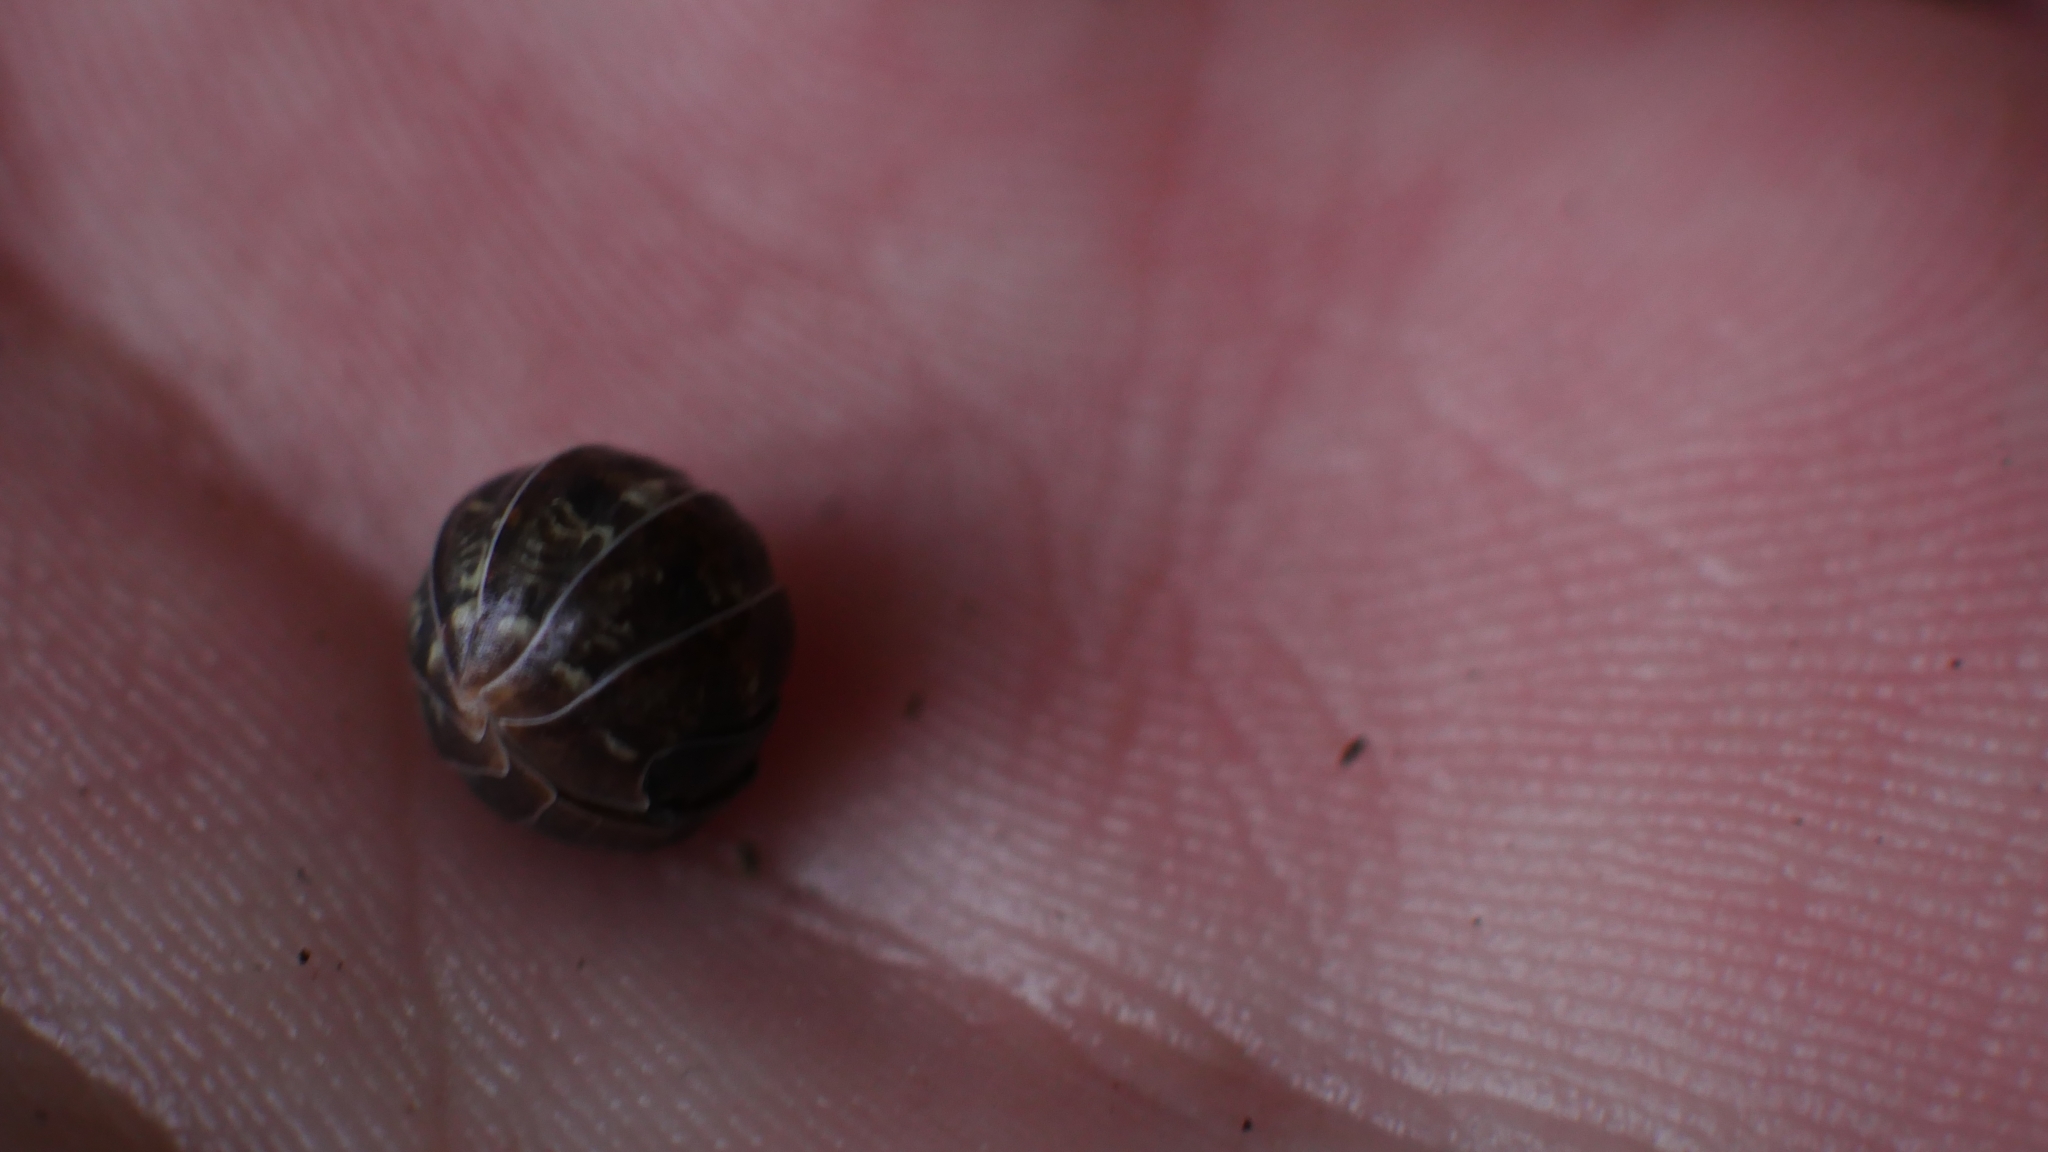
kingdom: Animalia
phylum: Arthropoda
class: Malacostraca
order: Isopoda
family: Armadillidiidae
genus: Armadillidium
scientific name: Armadillidium vulgare
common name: Common pill woodlouse
